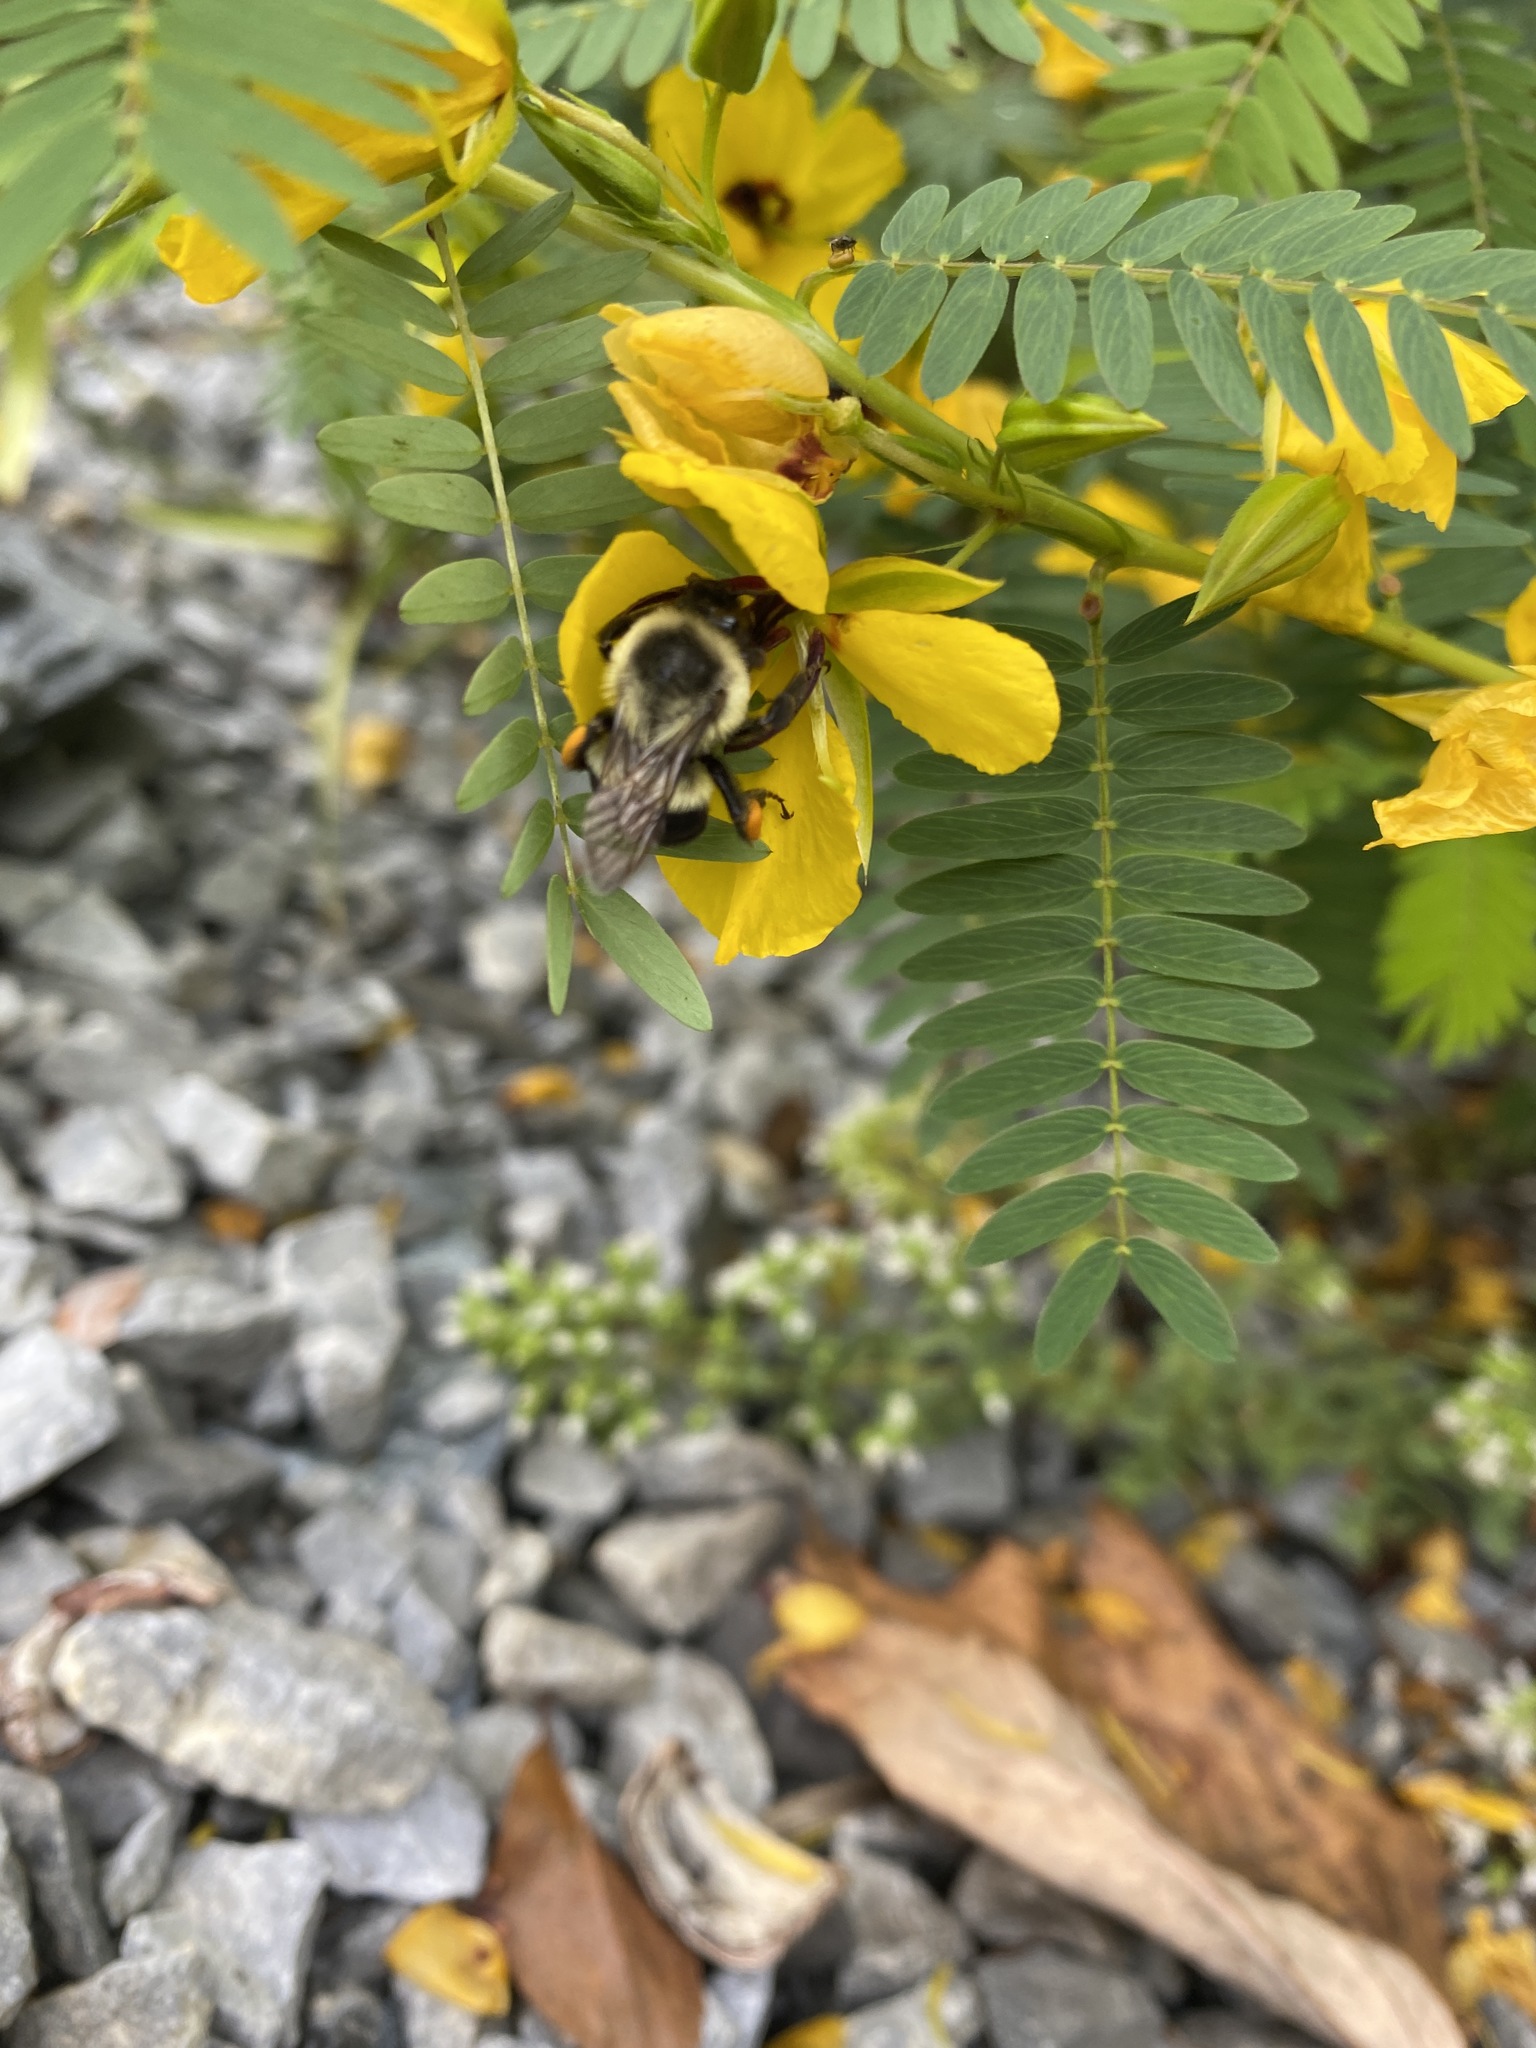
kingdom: Animalia
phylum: Arthropoda
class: Insecta
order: Hymenoptera
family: Apidae
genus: Bombus
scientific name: Bombus impatiens
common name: Common eastern bumble bee
